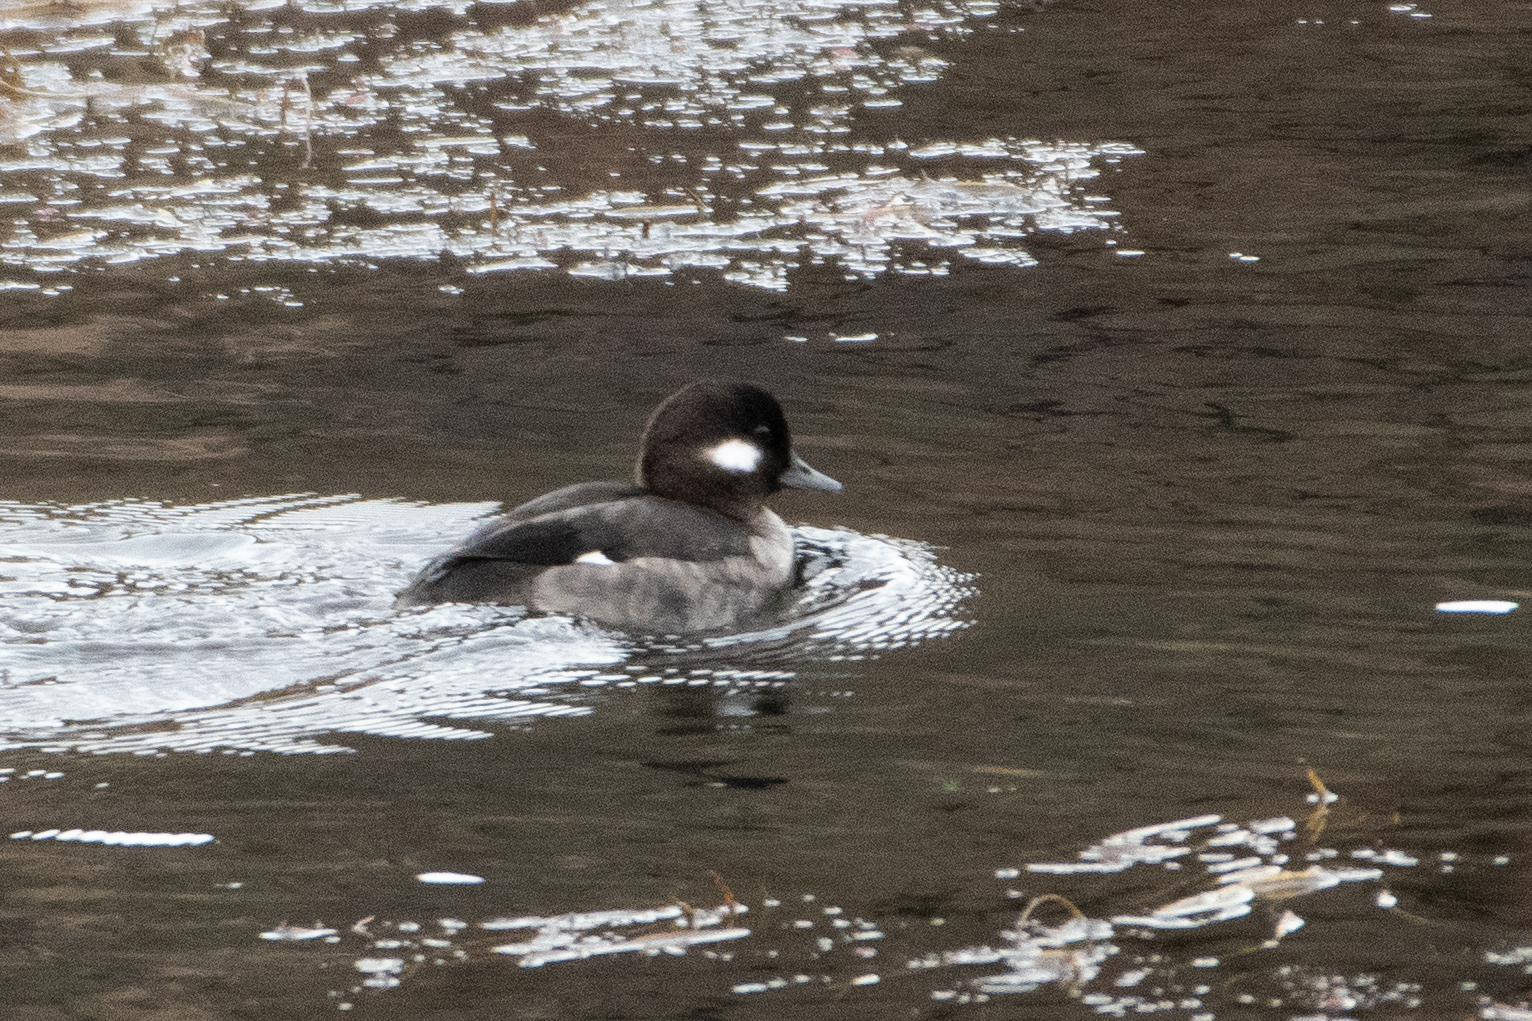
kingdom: Animalia
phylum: Chordata
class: Aves
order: Anseriformes
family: Anatidae
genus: Bucephala
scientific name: Bucephala albeola
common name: Bufflehead
